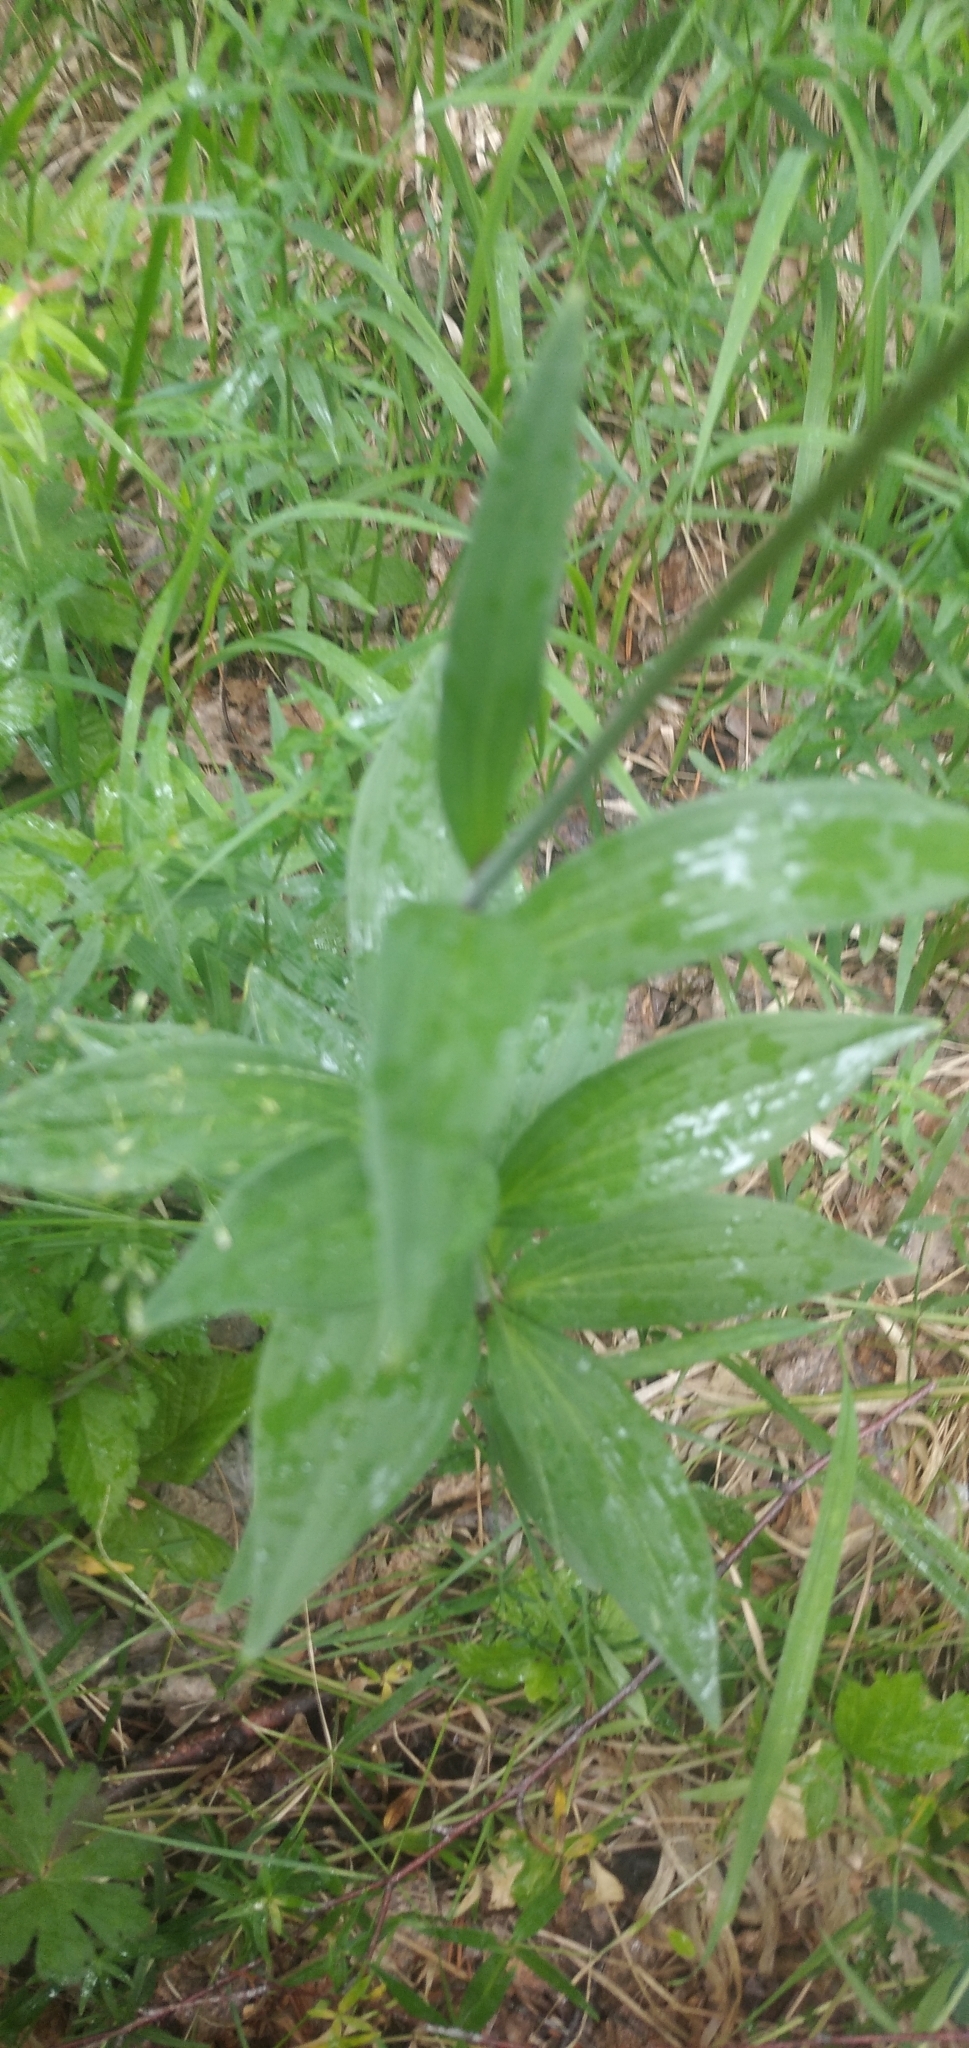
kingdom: Plantae
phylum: Tracheophyta
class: Liliopsida
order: Liliales
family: Liliaceae
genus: Lilium
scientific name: Lilium martagon
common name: Martagon lily
